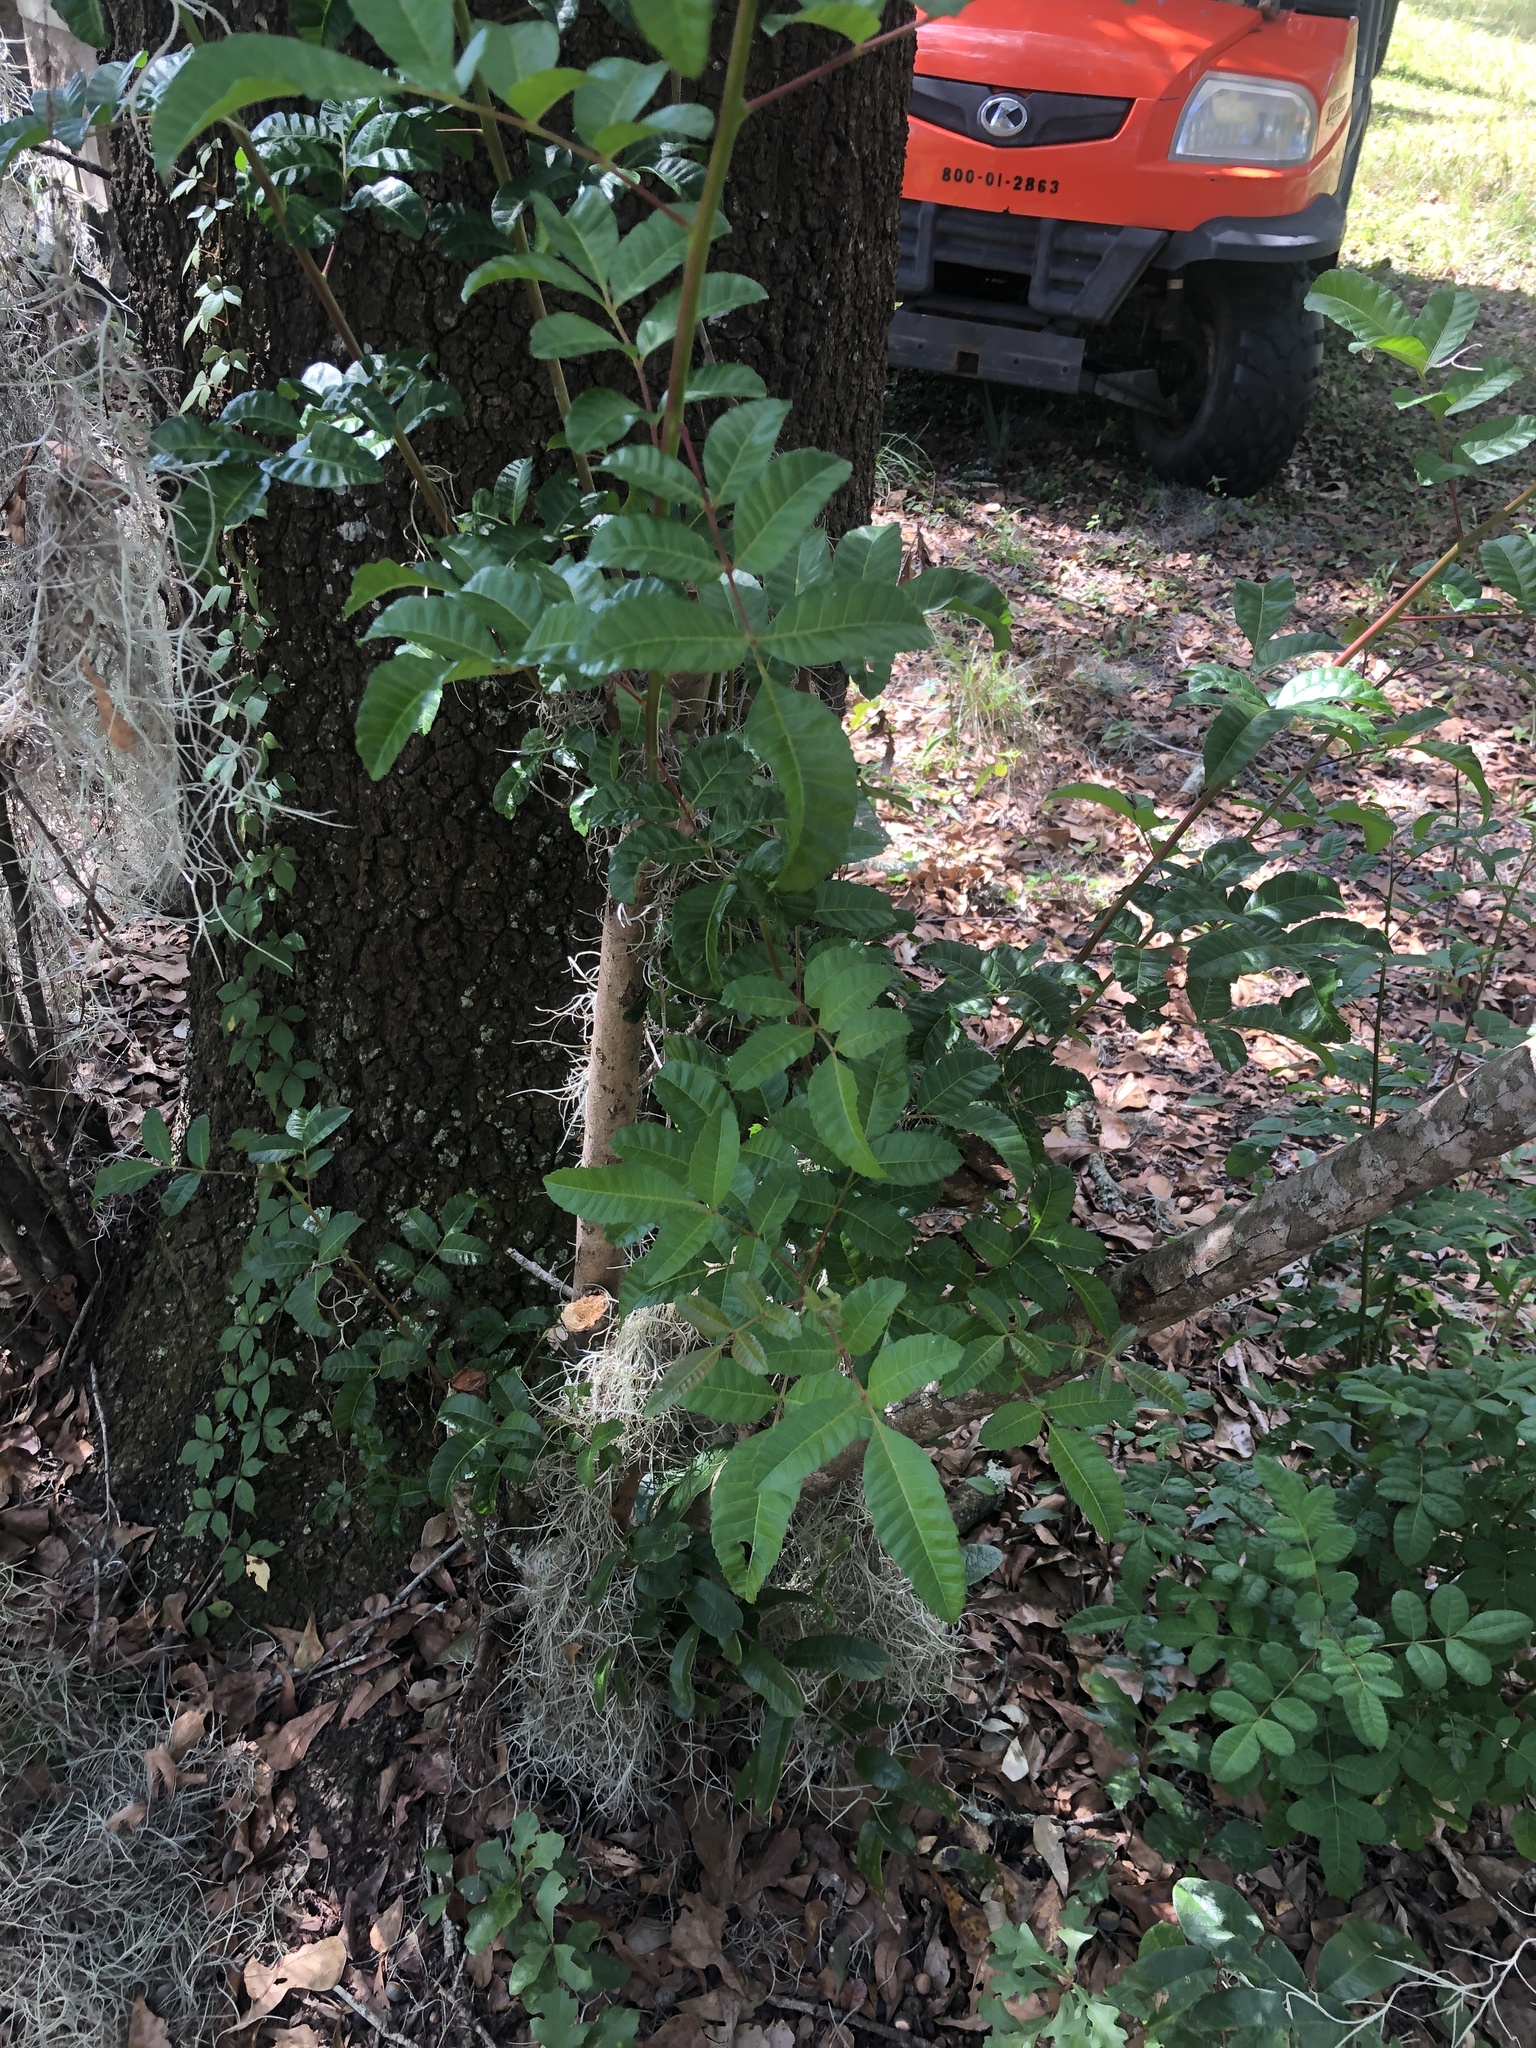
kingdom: Plantae
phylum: Tracheophyta
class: Magnoliopsida
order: Sapindales
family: Anacardiaceae
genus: Schinus
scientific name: Schinus terebinthifolia
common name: Brazilian peppertree
